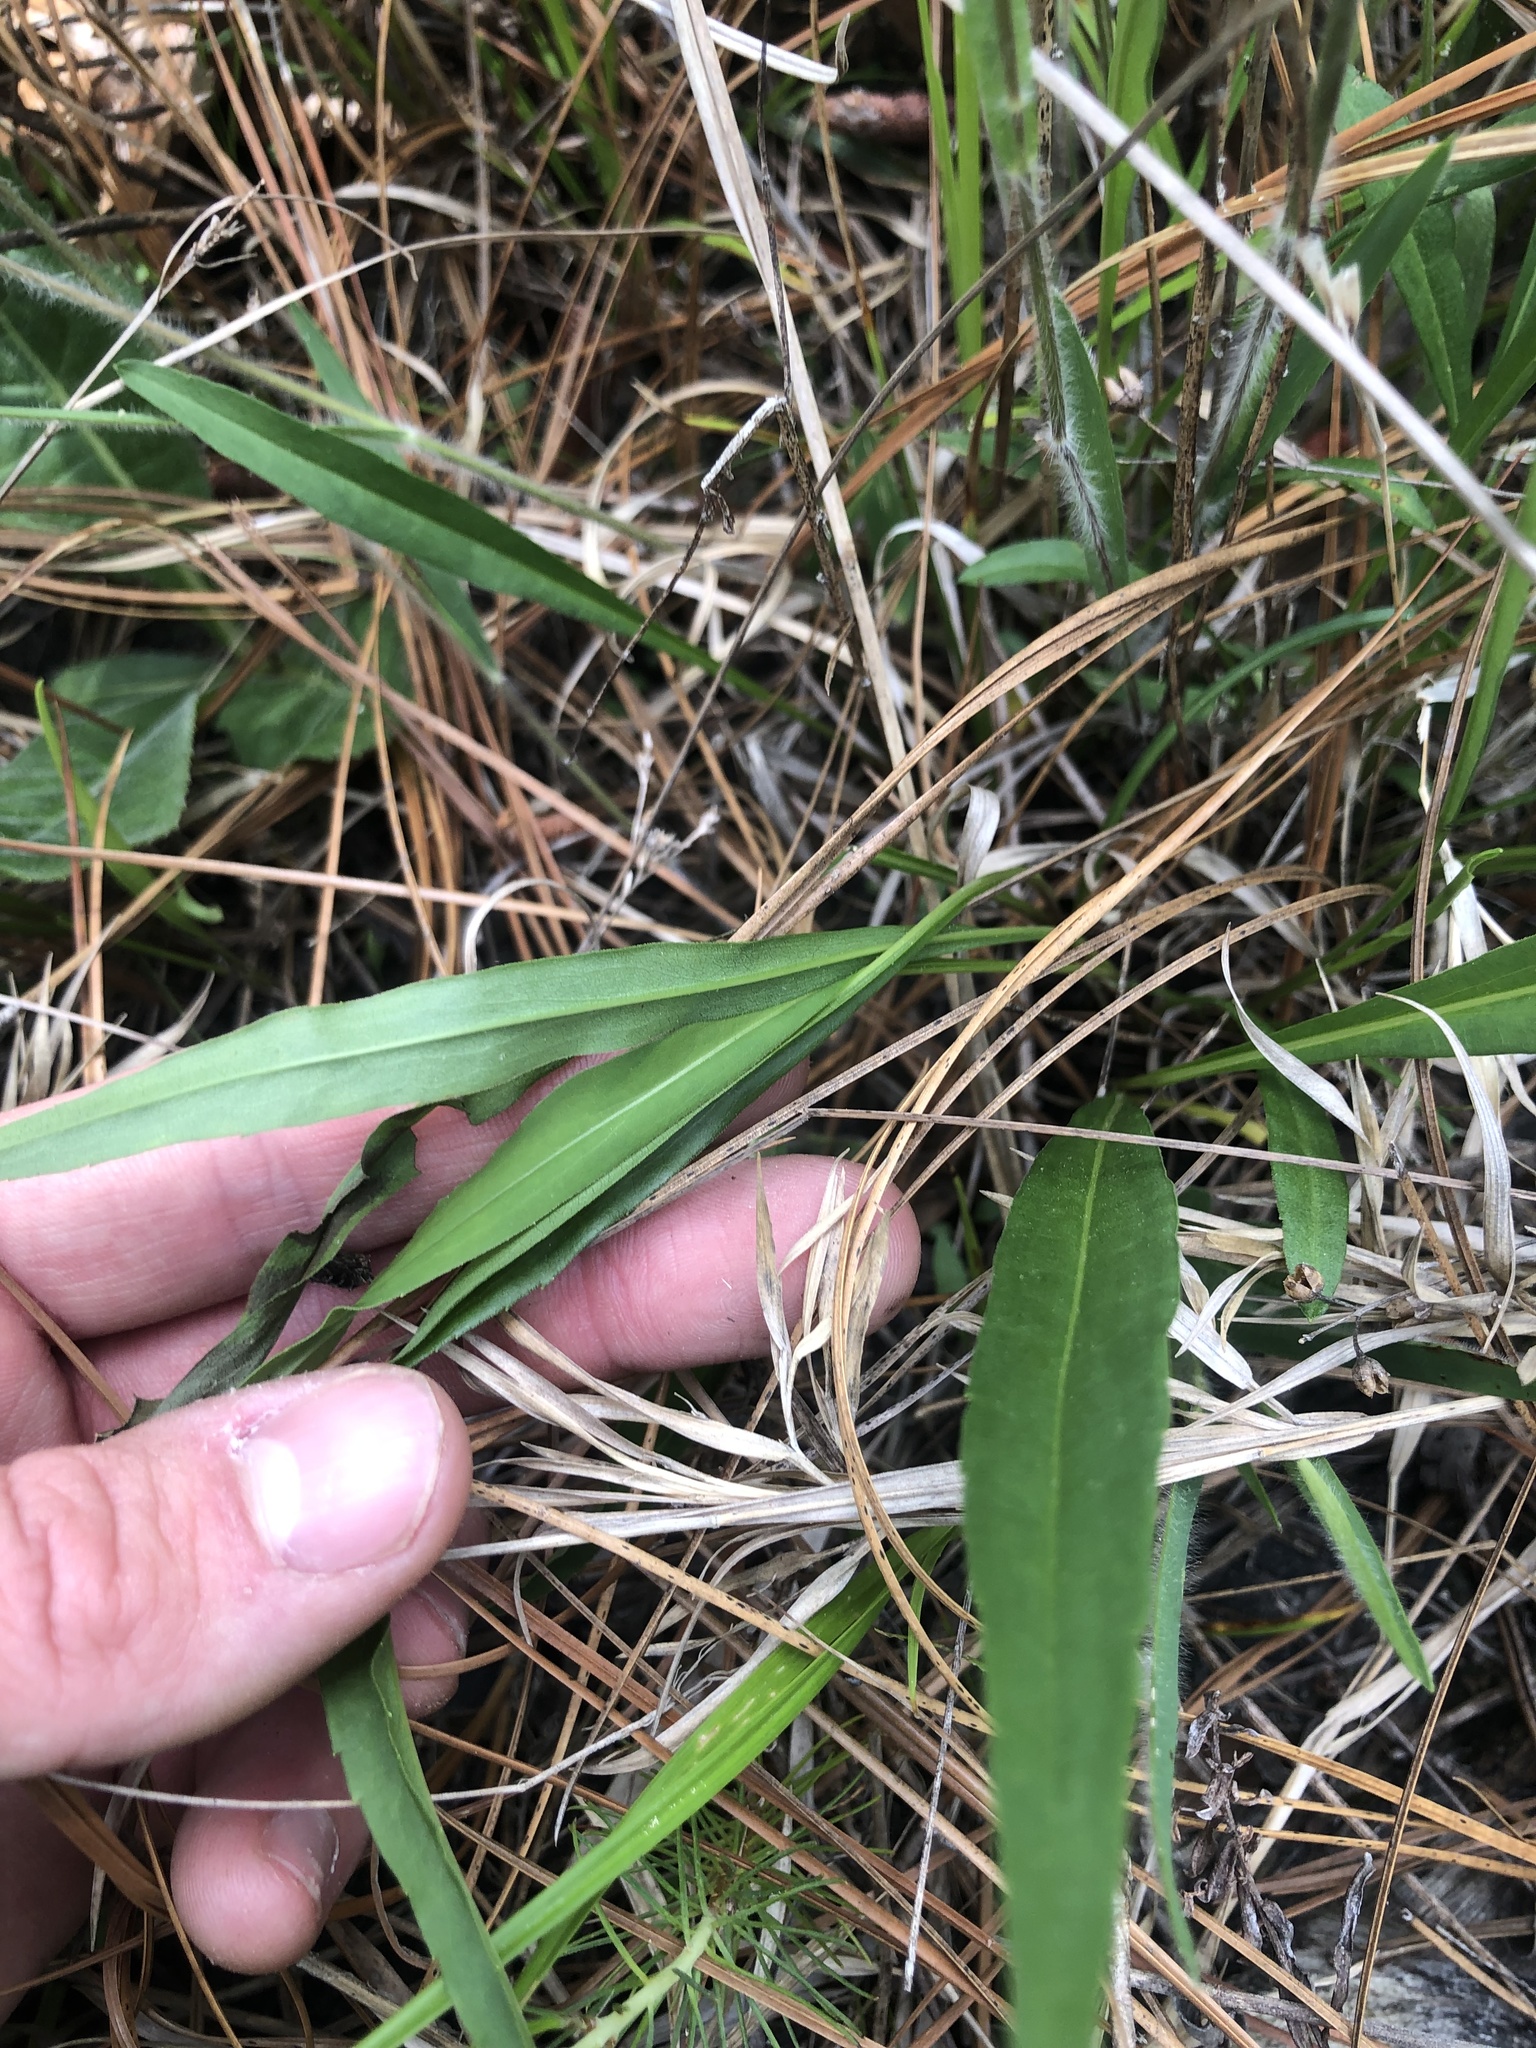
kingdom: Plantae
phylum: Tracheophyta
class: Magnoliopsida
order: Asterales
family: Asteraceae
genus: Solidago
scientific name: Solidago austrina
